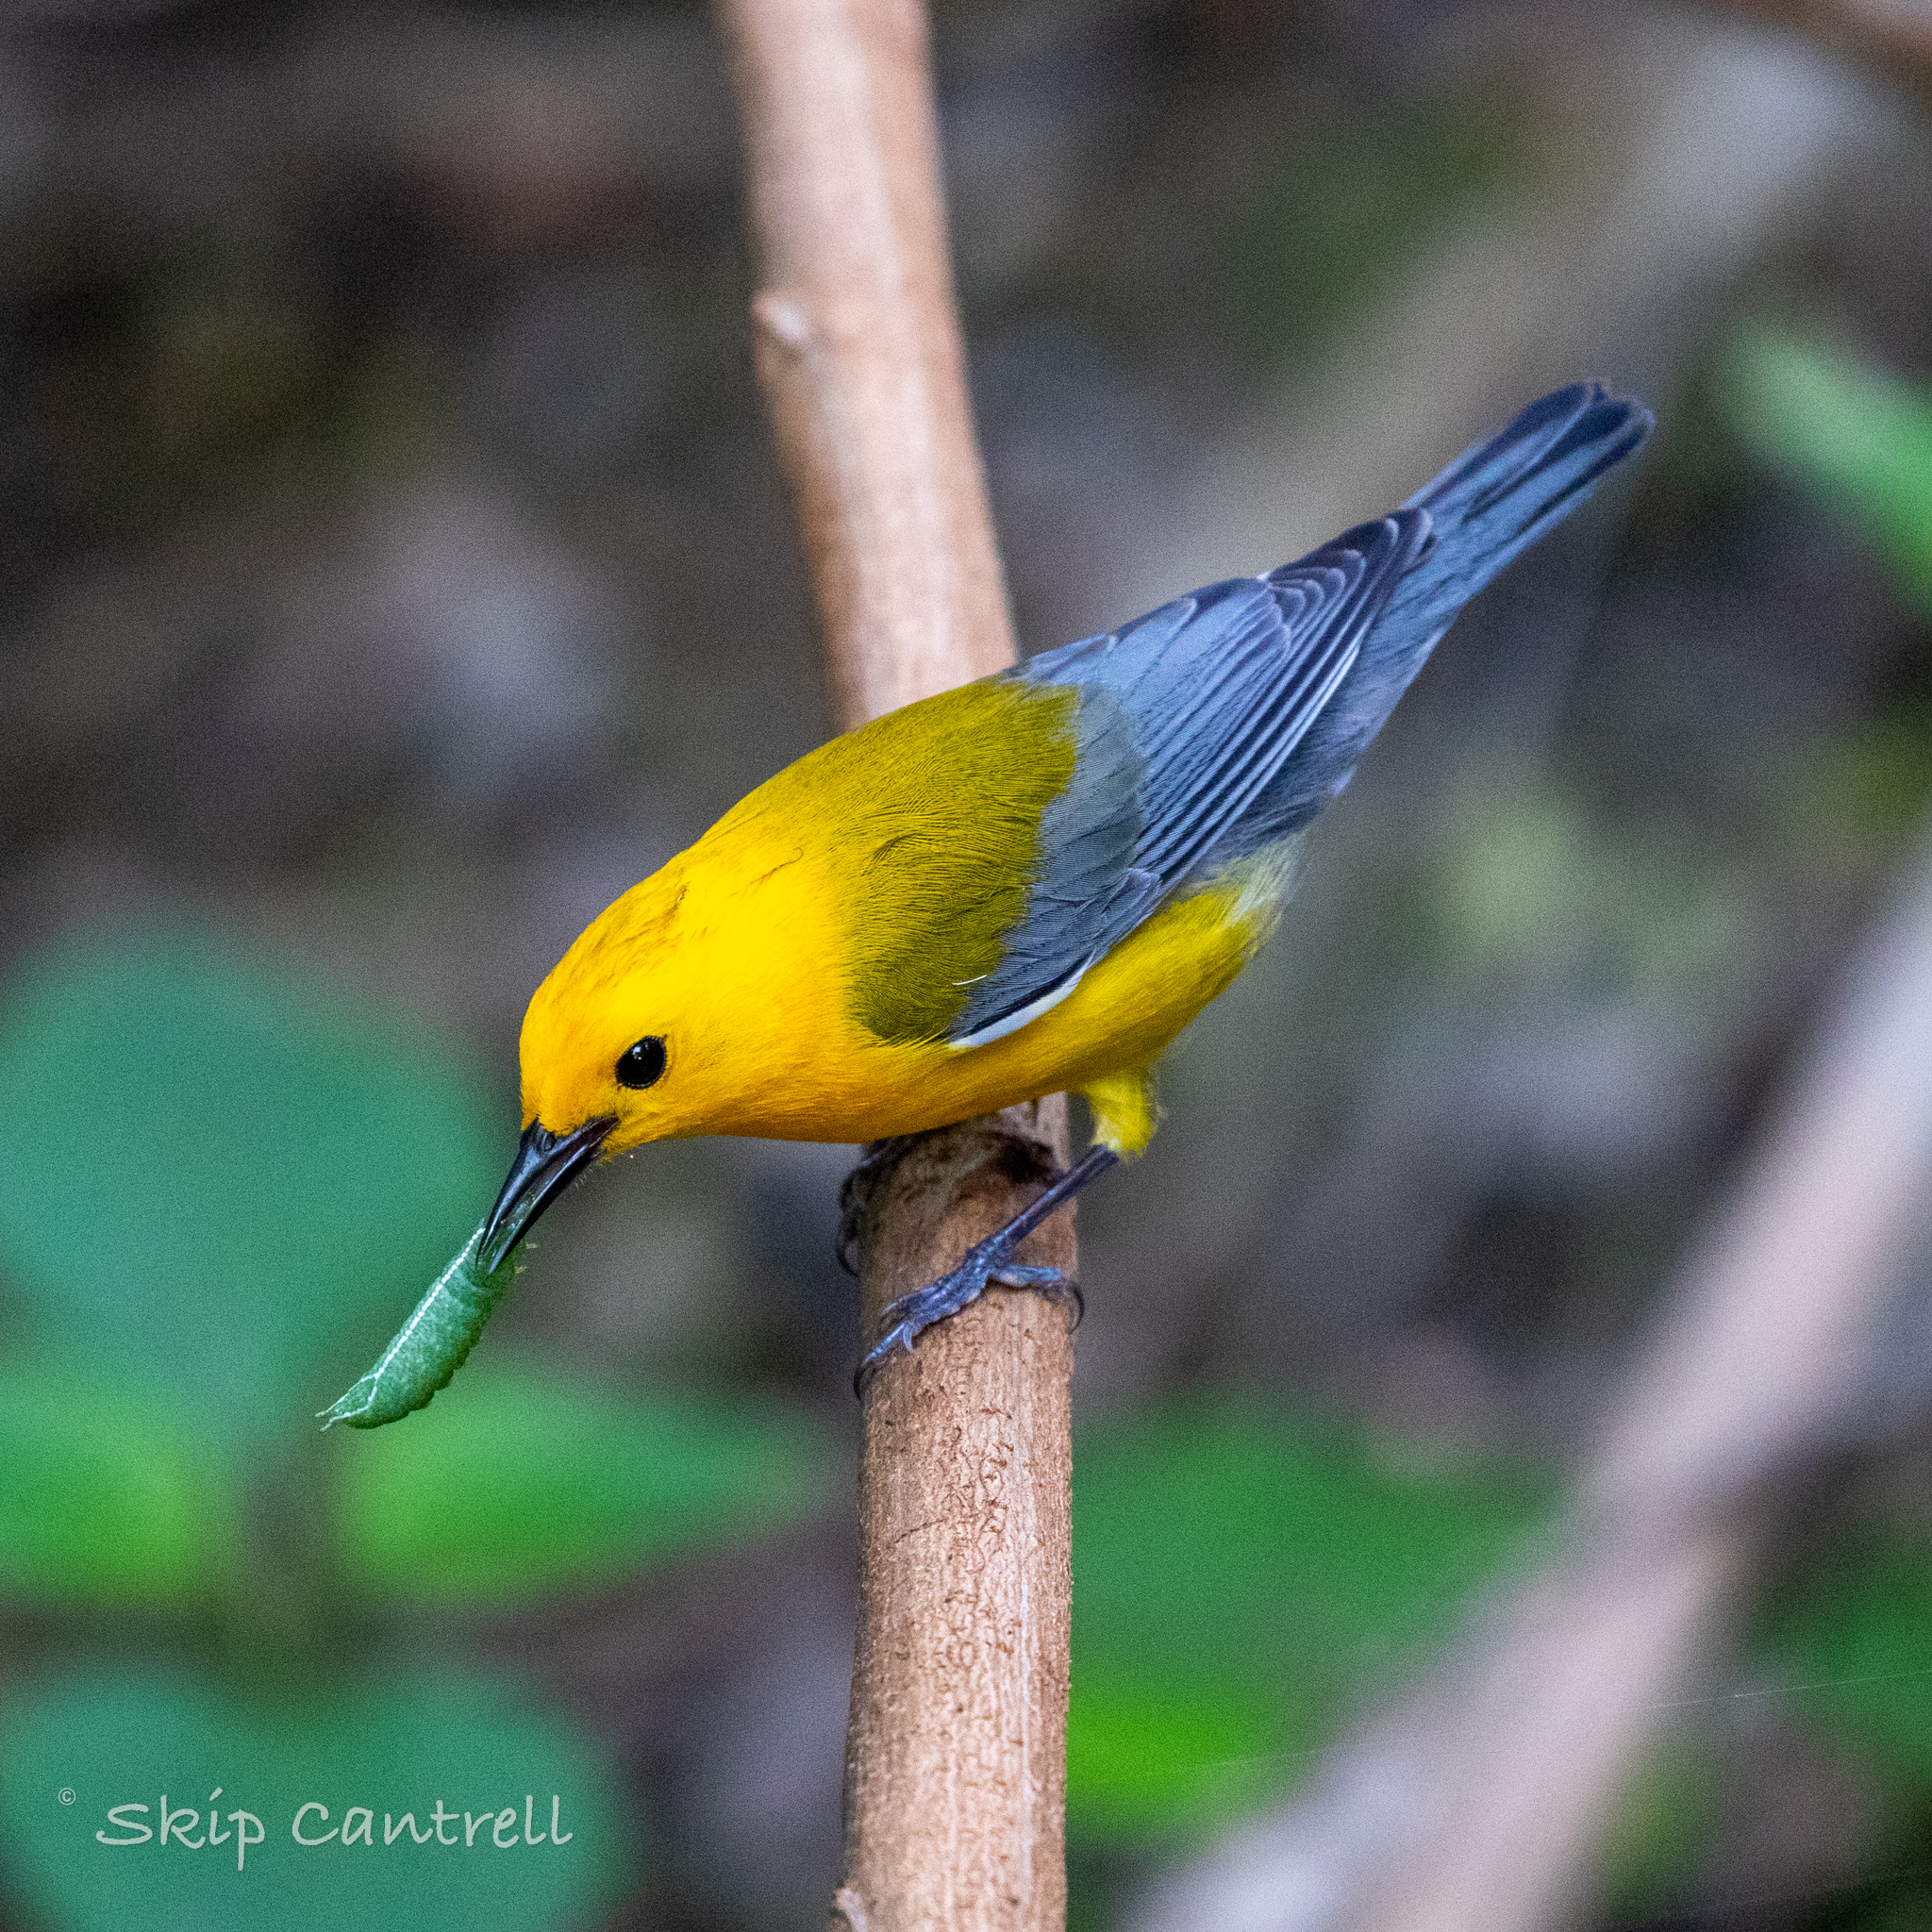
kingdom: Animalia
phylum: Chordata
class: Aves
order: Passeriformes
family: Parulidae
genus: Protonotaria
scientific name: Protonotaria citrea
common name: Prothonotary warbler
